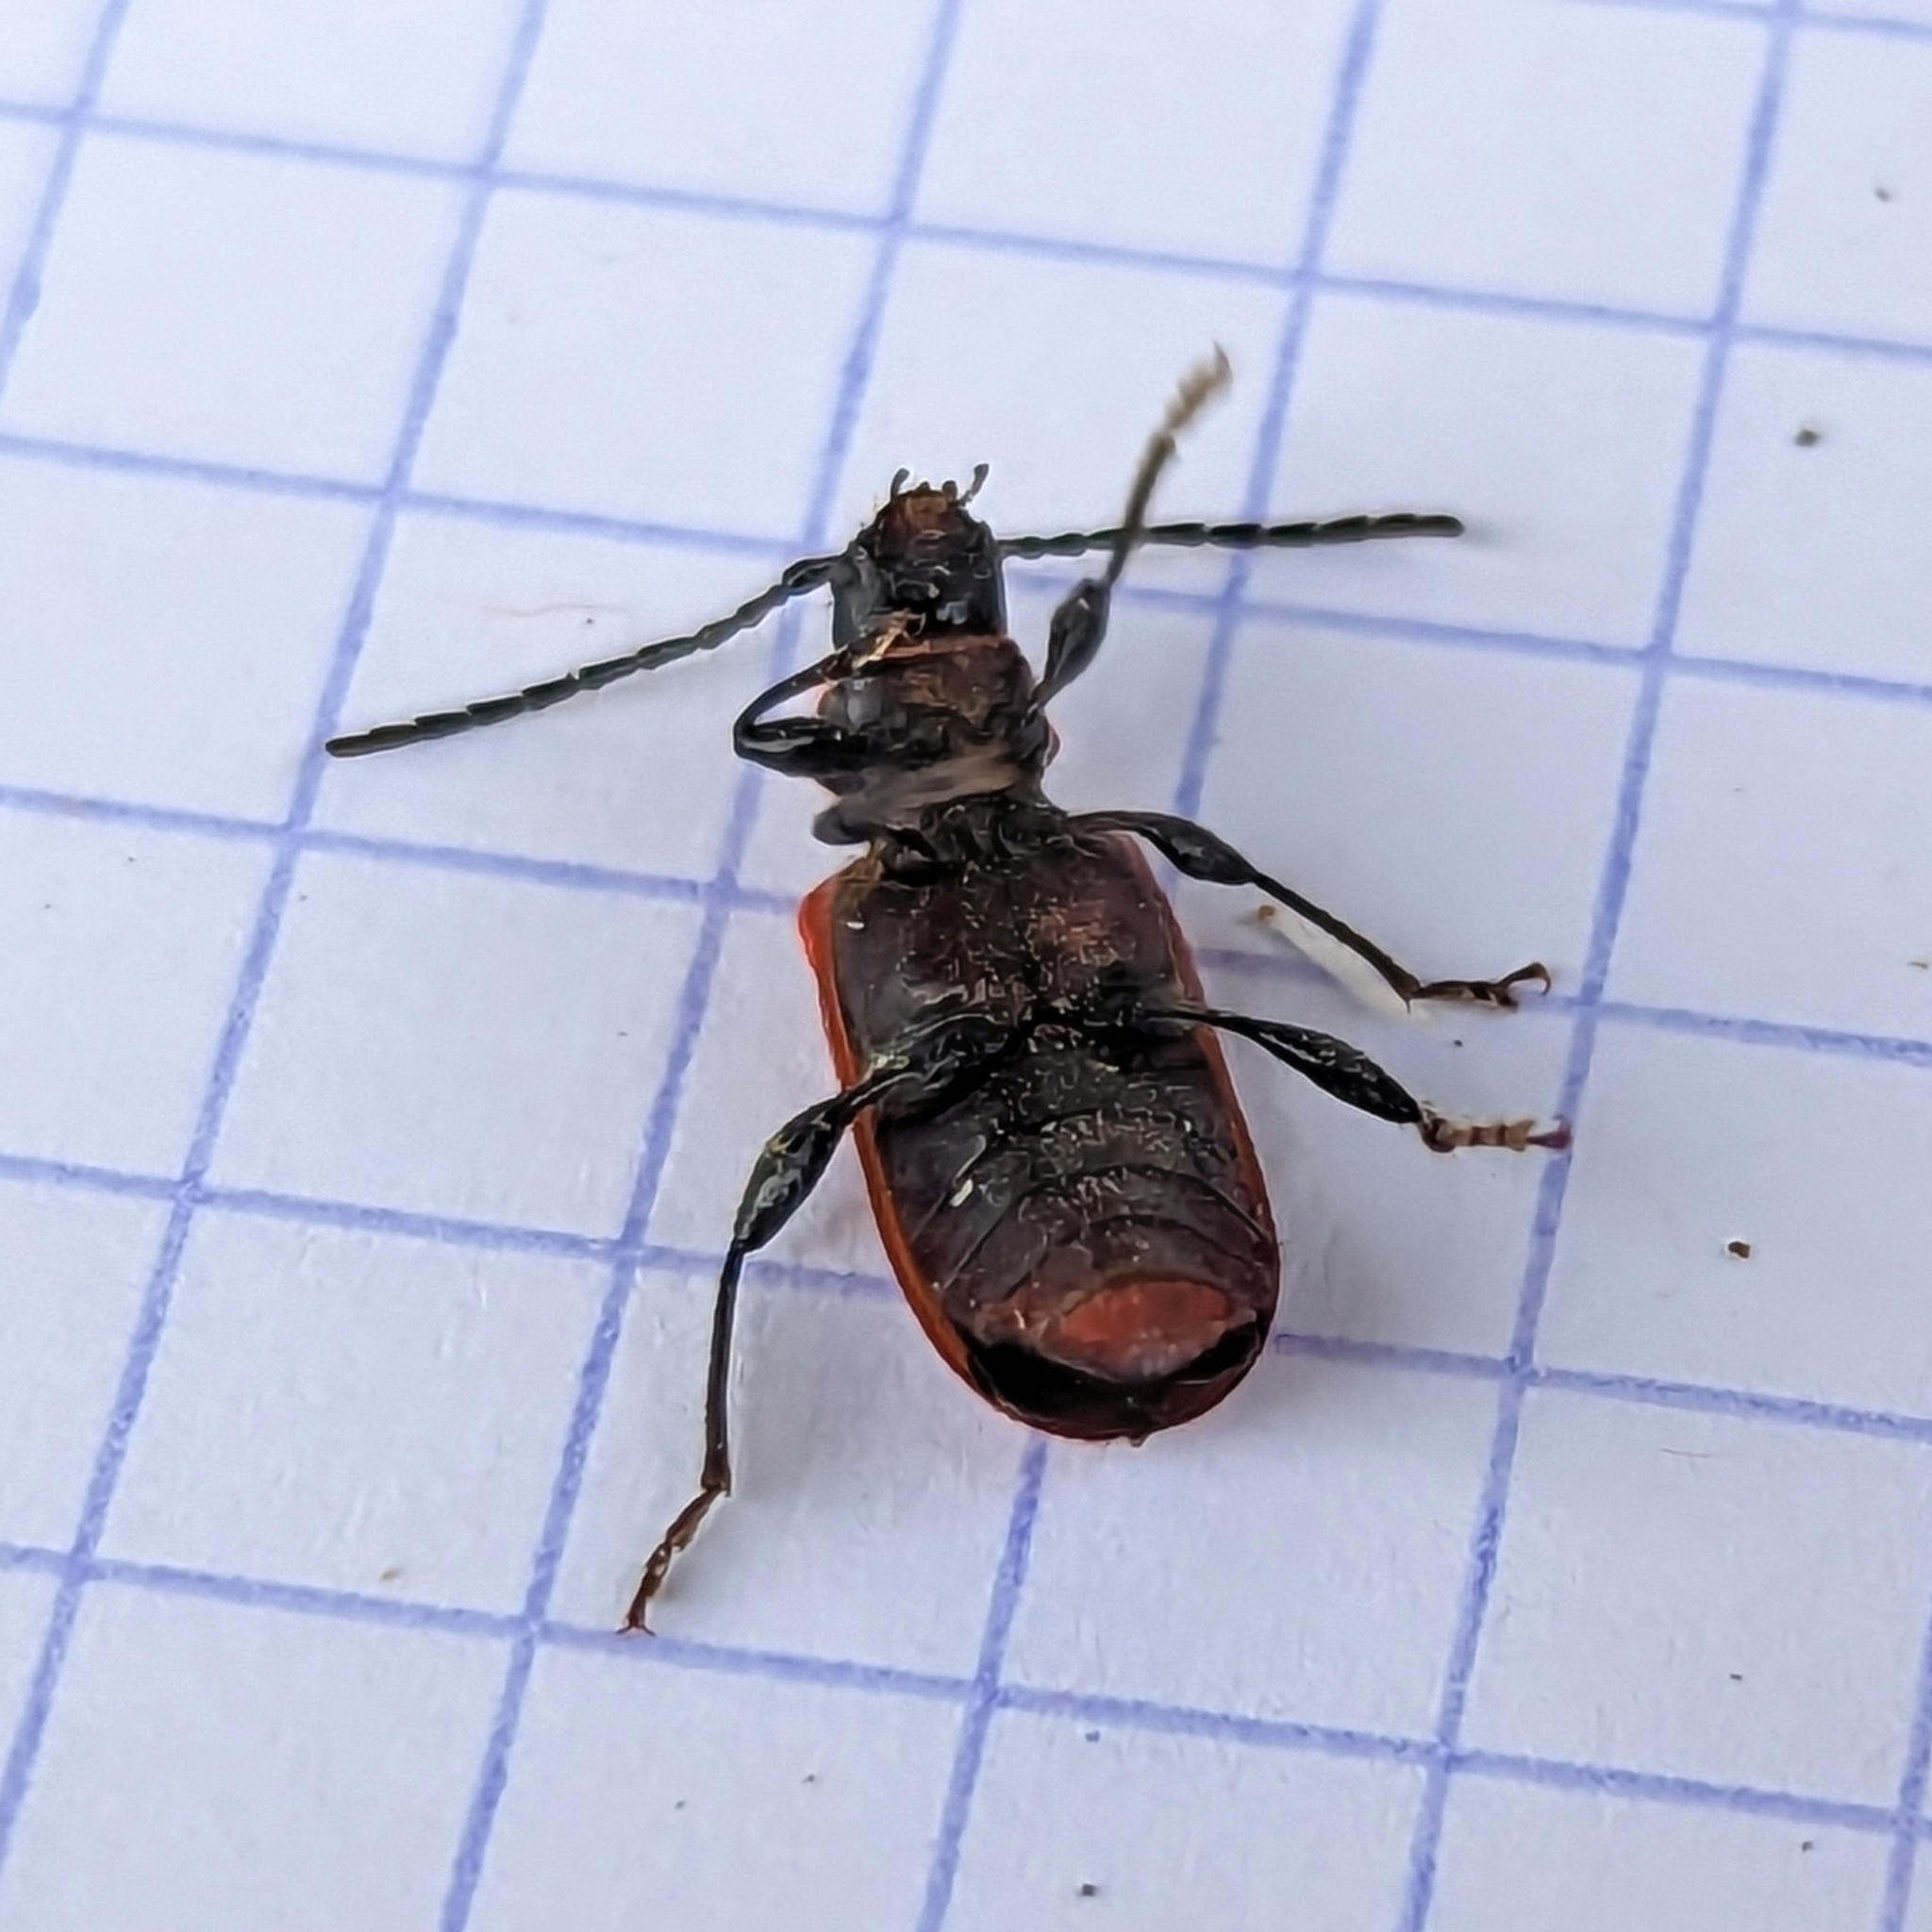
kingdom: Animalia
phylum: Arthropoda
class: Insecta
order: Coleoptera
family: Cerambycidae
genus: Pyrrhidium
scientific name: Pyrrhidium sanguineum
